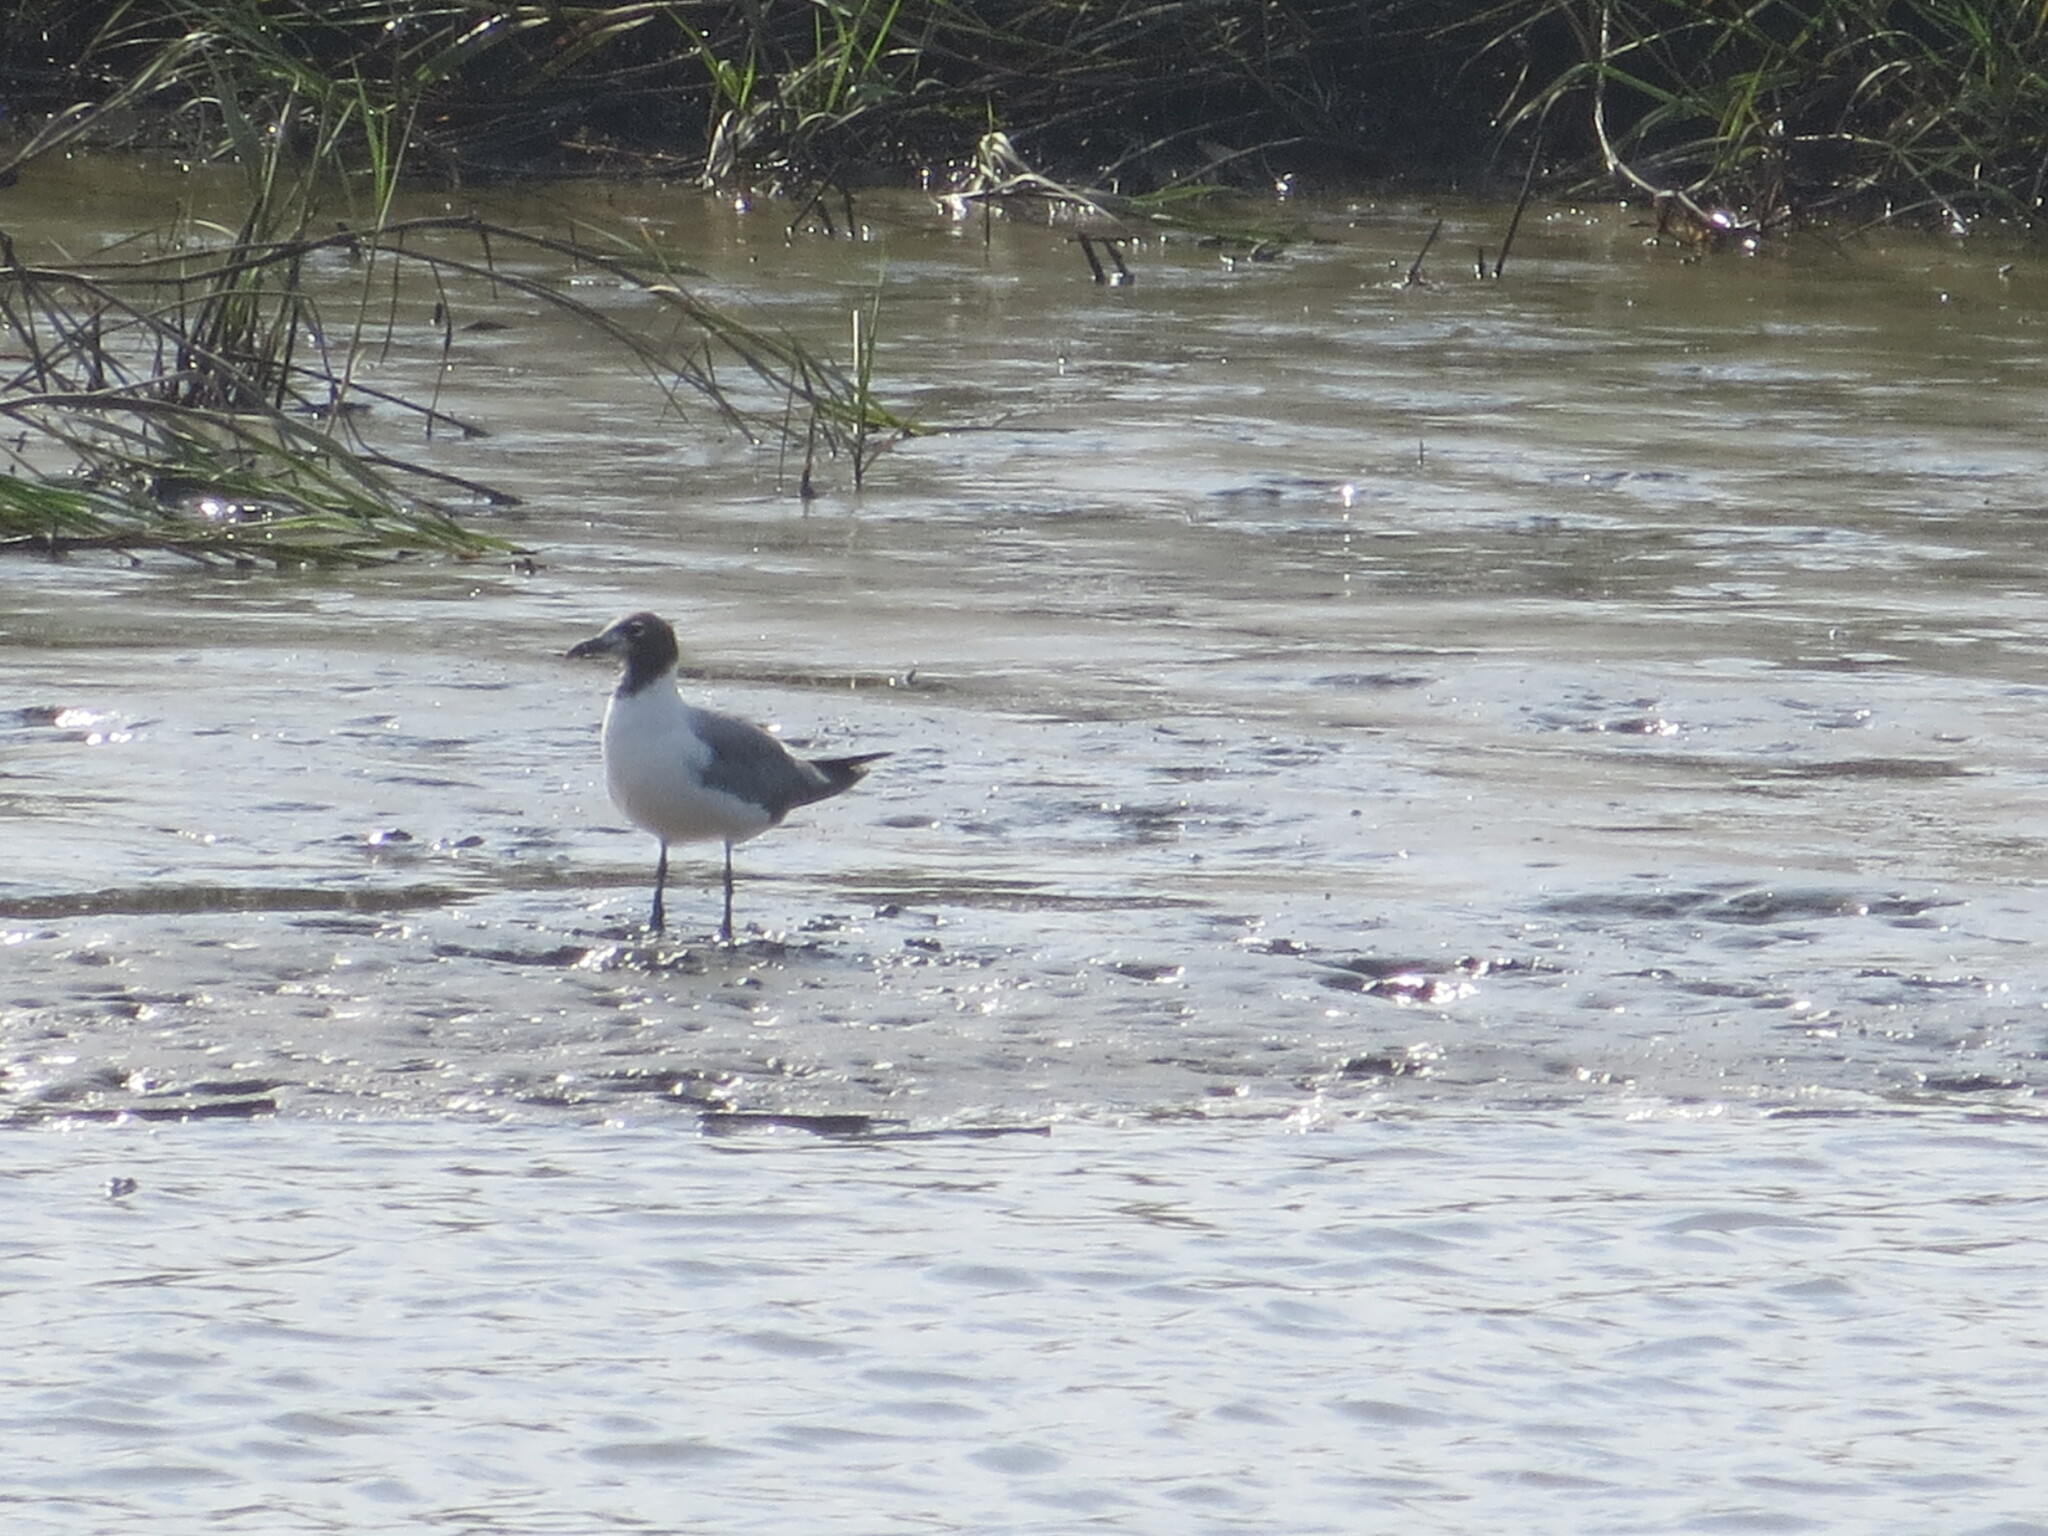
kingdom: Animalia
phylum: Chordata
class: Aves
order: Charadriiformes
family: Laridae
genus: Leucophaeus
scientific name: Leucophaeus atricilla
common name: Laughing gull
